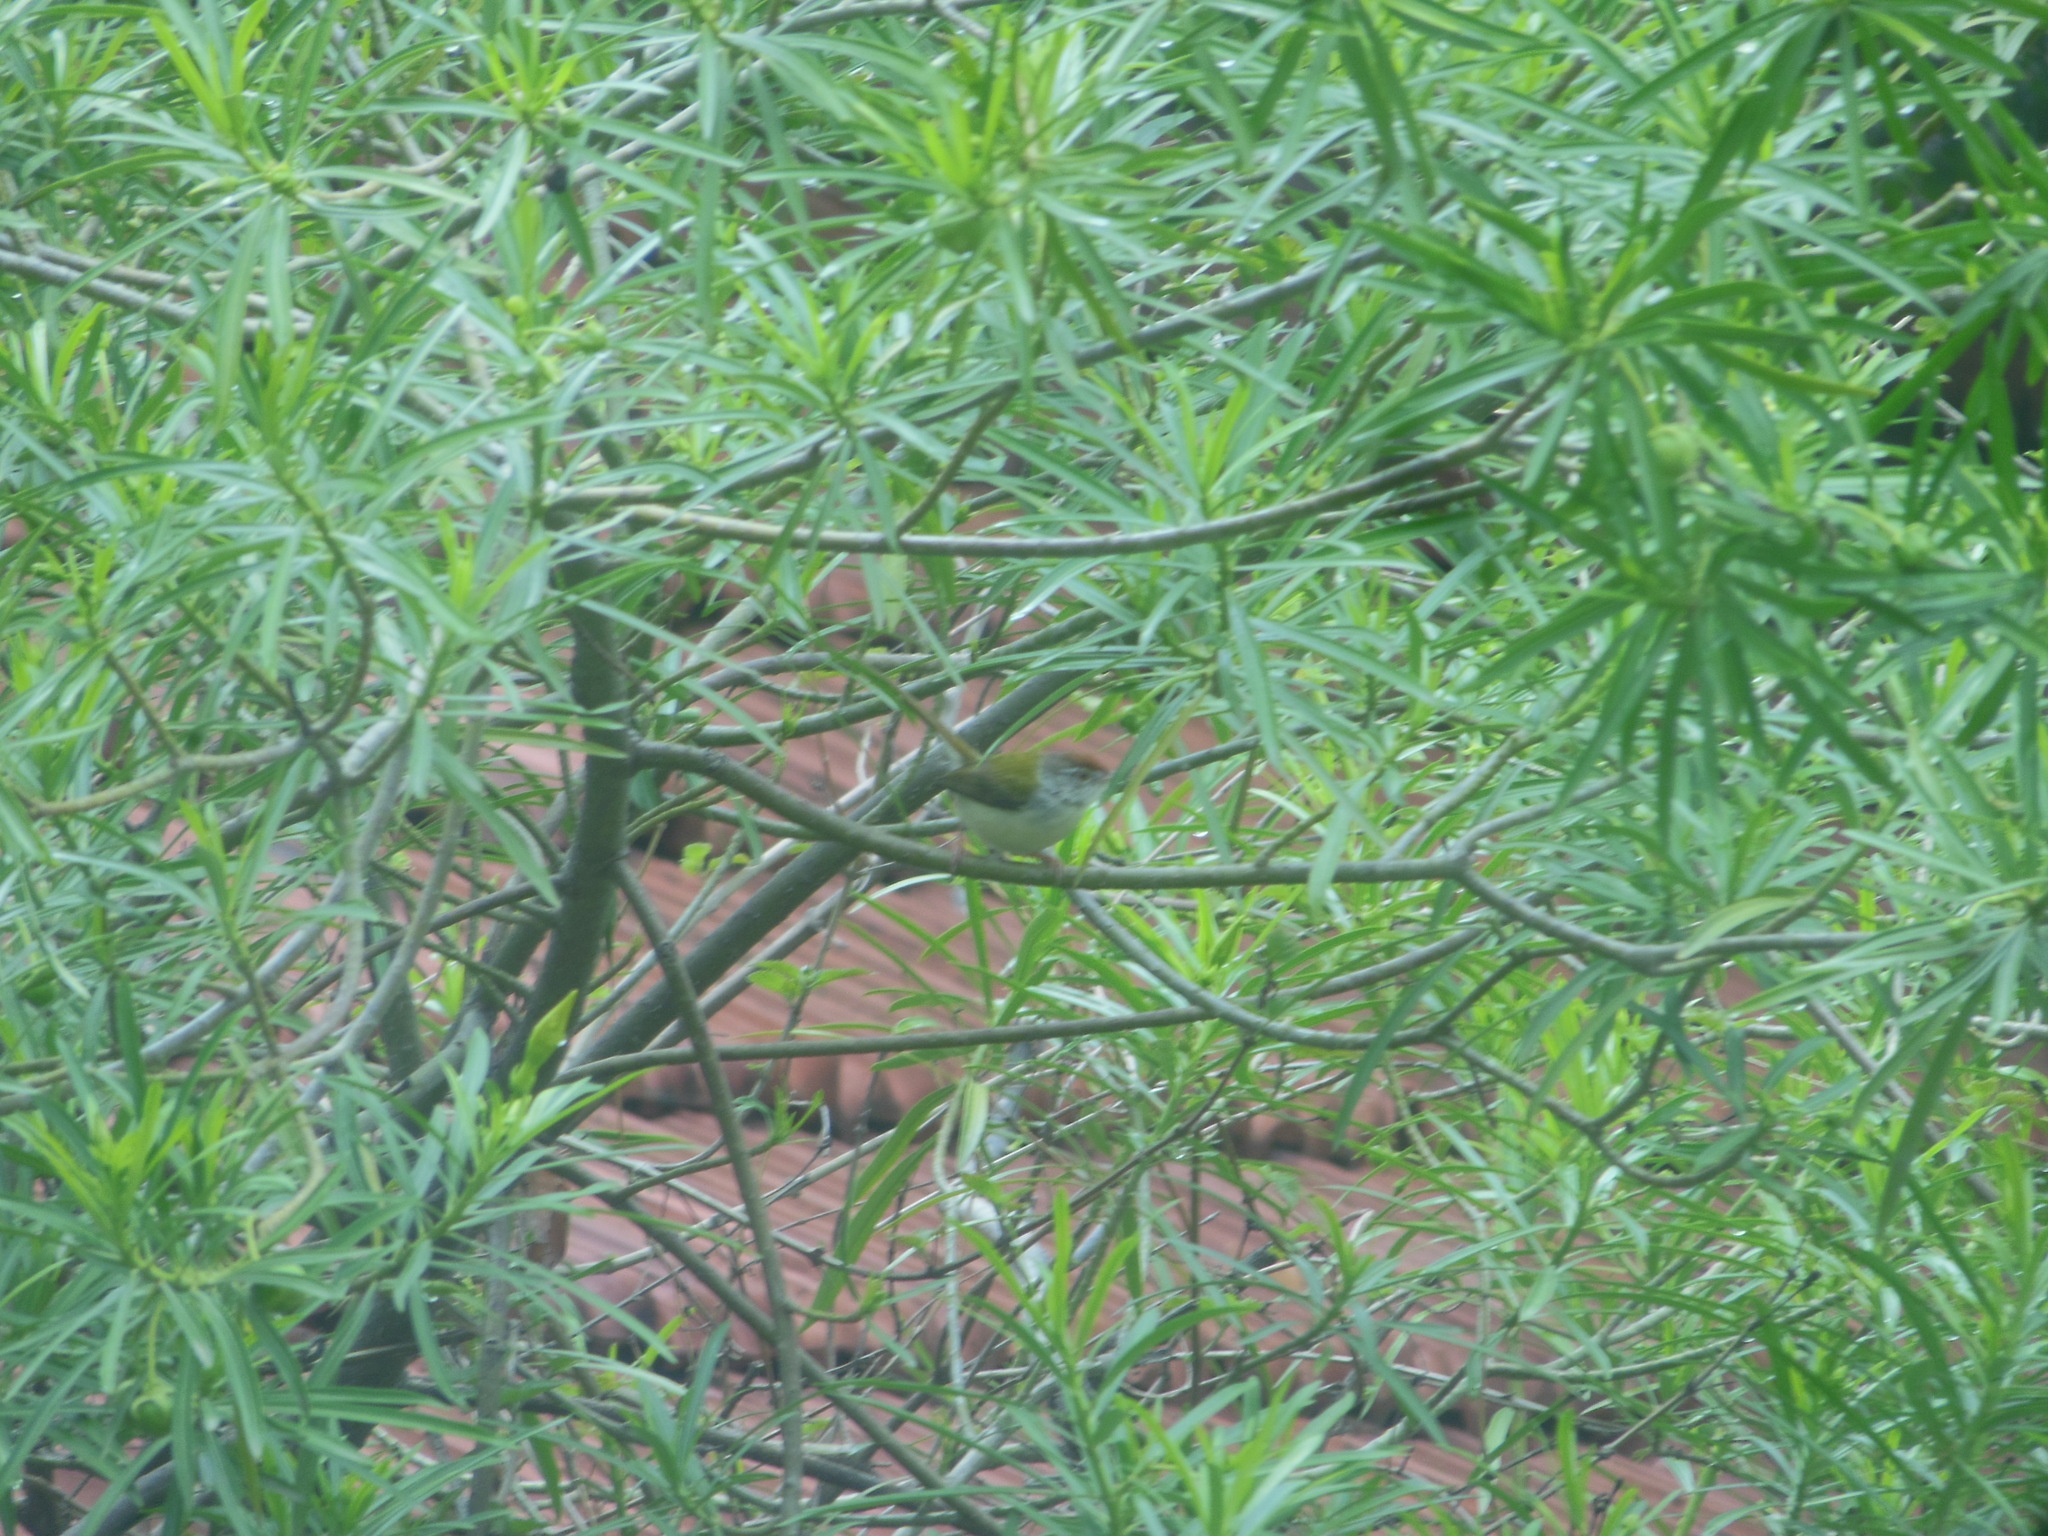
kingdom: Animalia
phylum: Chordata
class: Aves
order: Passeriformes
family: Cisticolidae
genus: Orthotomus
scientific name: Orthotomus sutorius
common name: Common tailorbird
